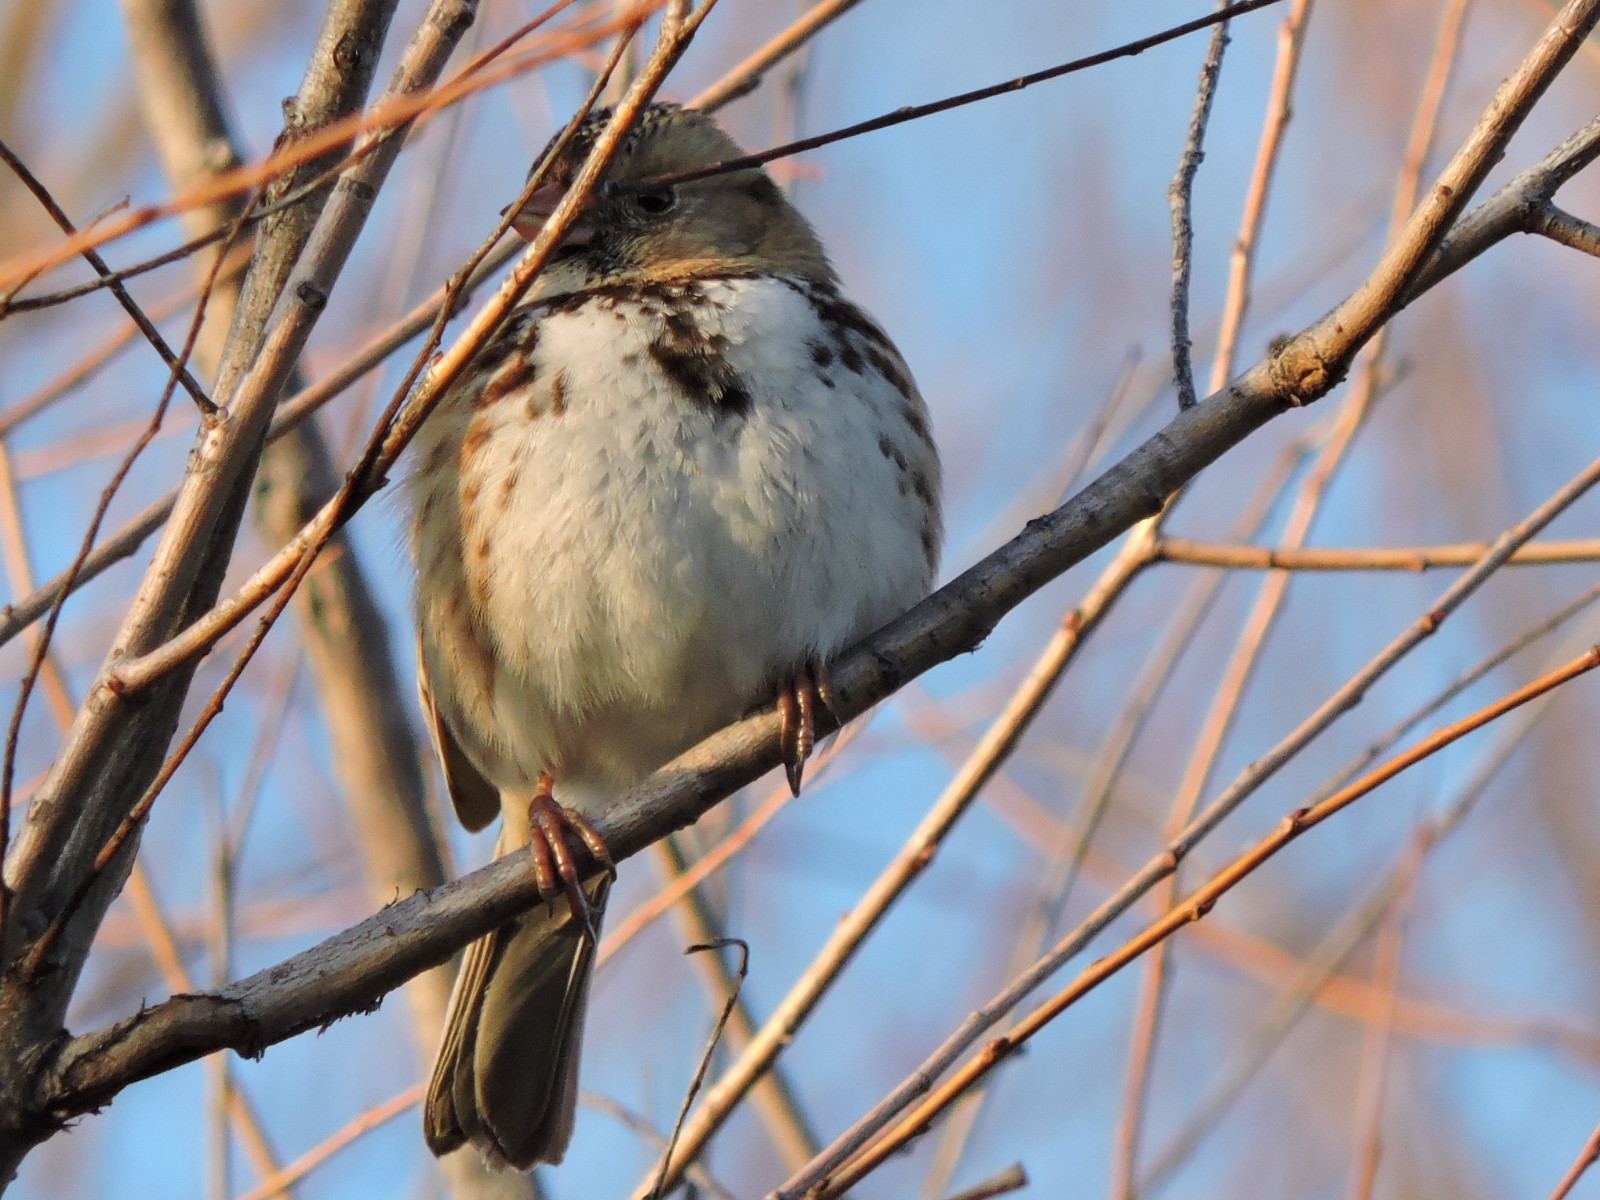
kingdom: Animalia
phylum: Chordata
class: Aves
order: Passeriformes
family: Passerellidae
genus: Zonotrichia
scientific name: Zonotrichia querula
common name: Harris's sparrow
